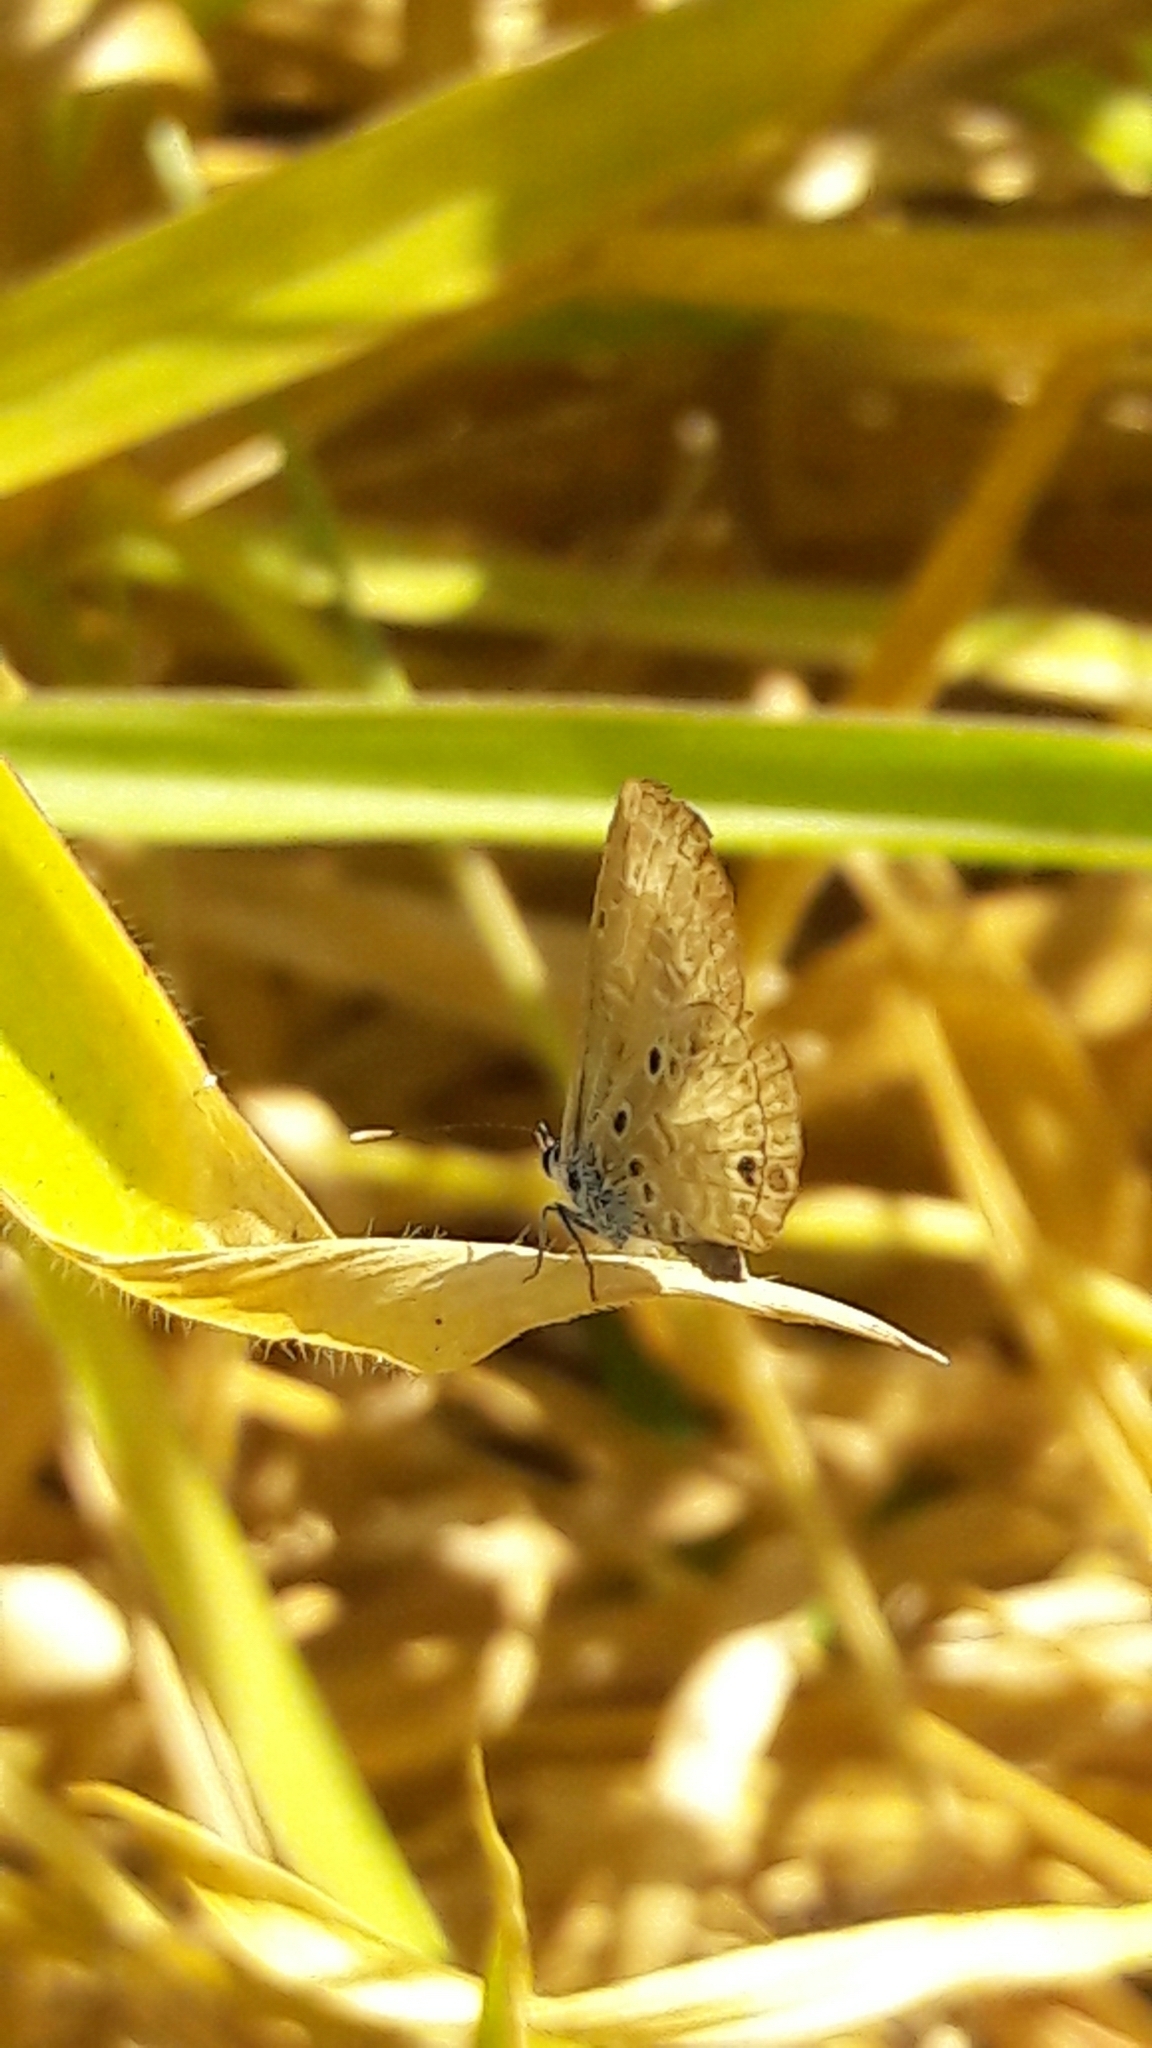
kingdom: Animalia
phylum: Arthropoda
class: Insecta
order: Lepidoptera
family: Lycaenidae
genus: Hemiargus
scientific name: Hemiargus hanno
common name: Common blue
